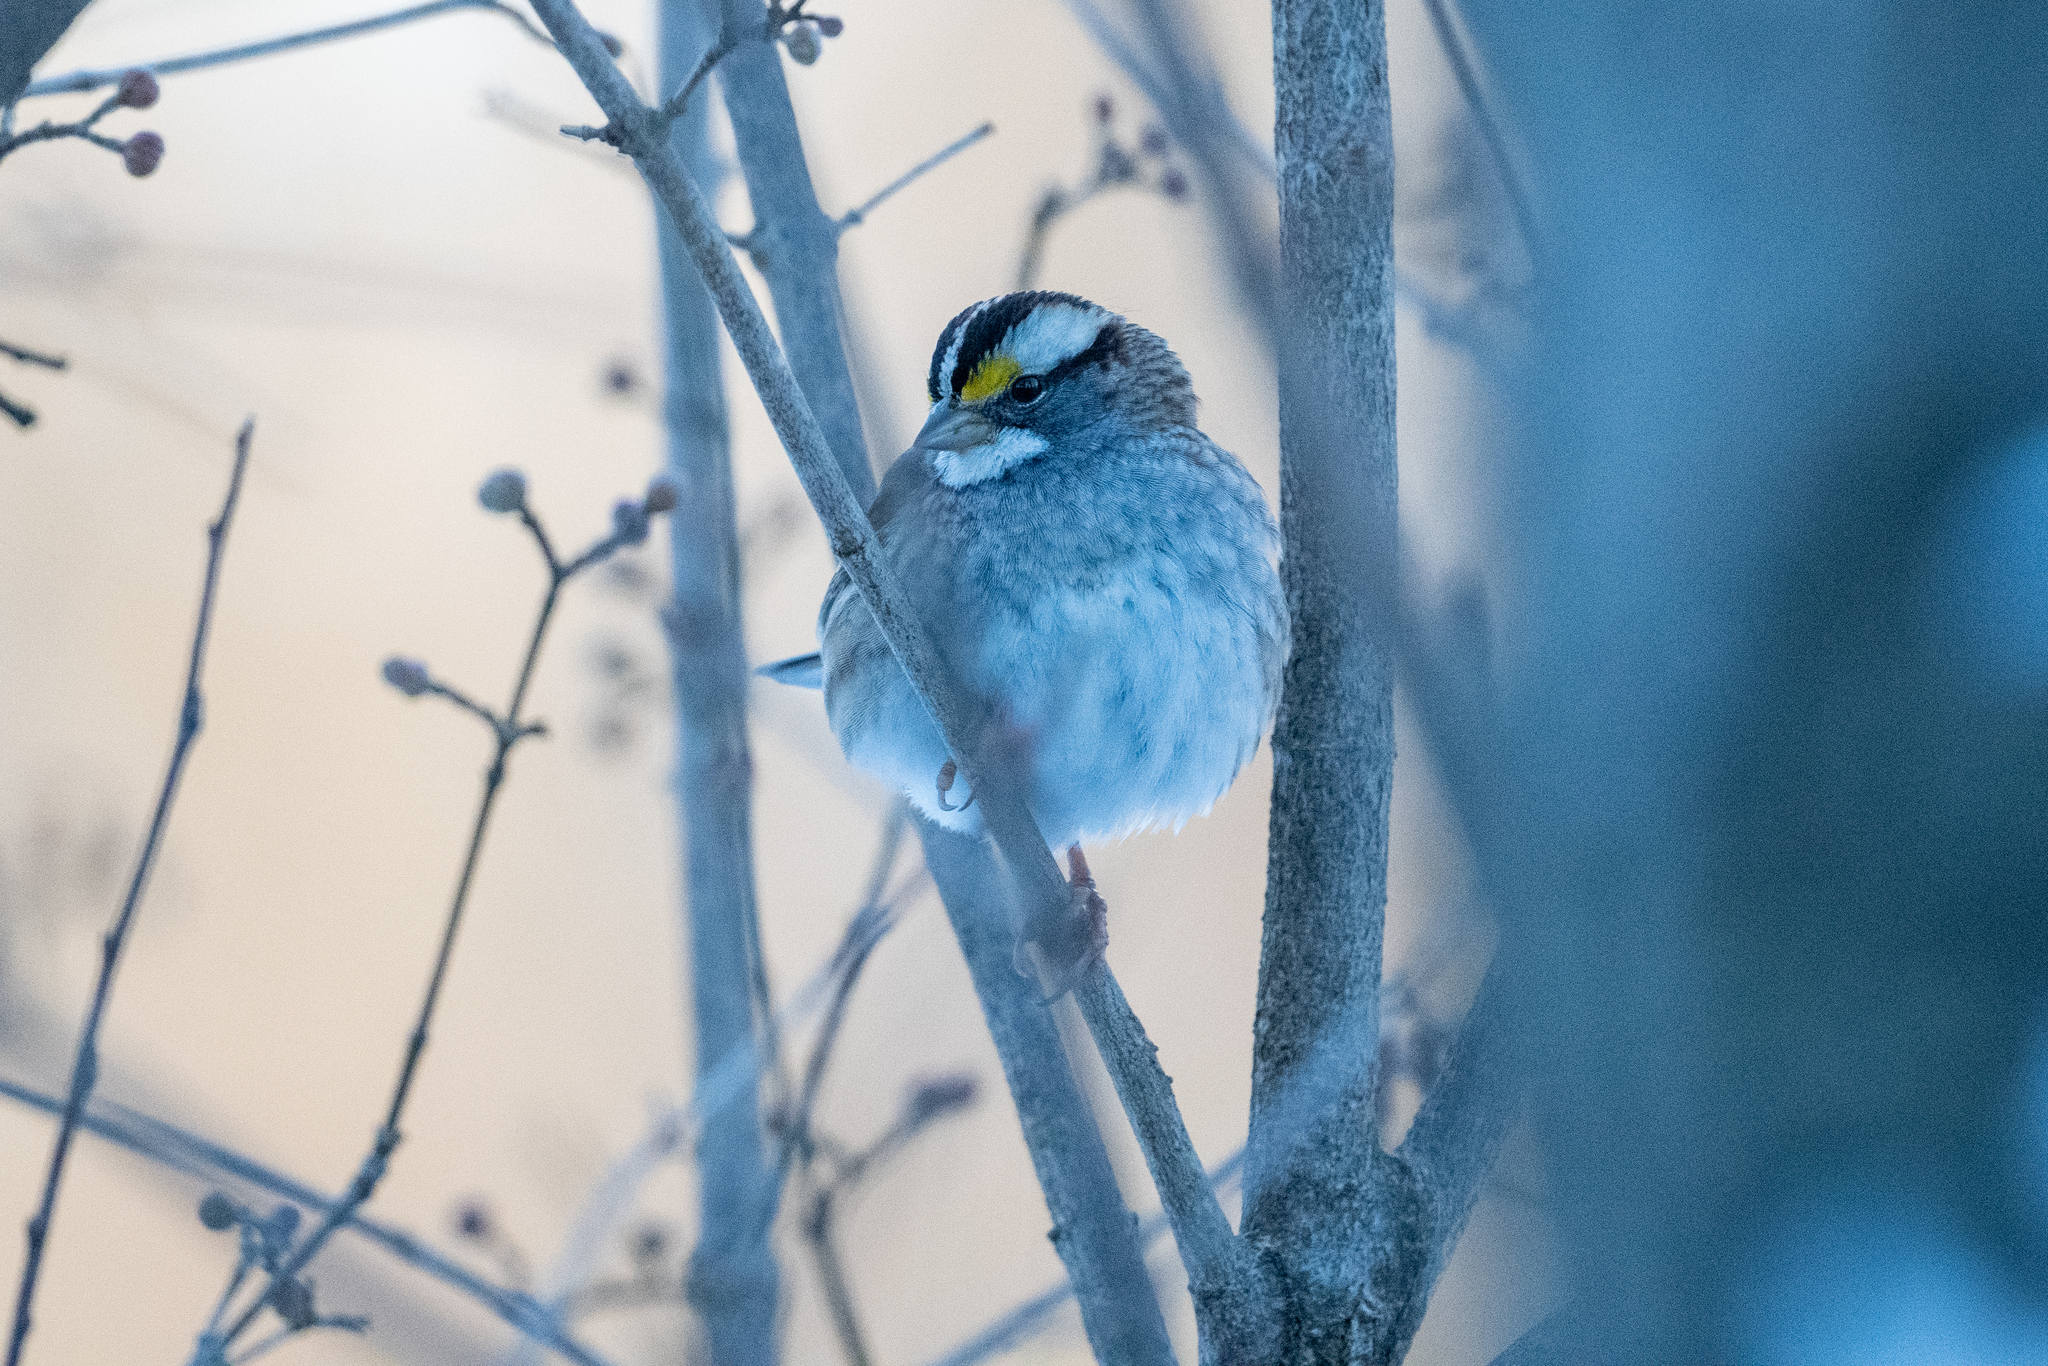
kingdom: Animalia
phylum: Chordata
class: Aves
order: Passeriformes
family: Passerellidae
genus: Zonotrichia
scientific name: Zonotrichia albicollis
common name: White-throated sparrow
